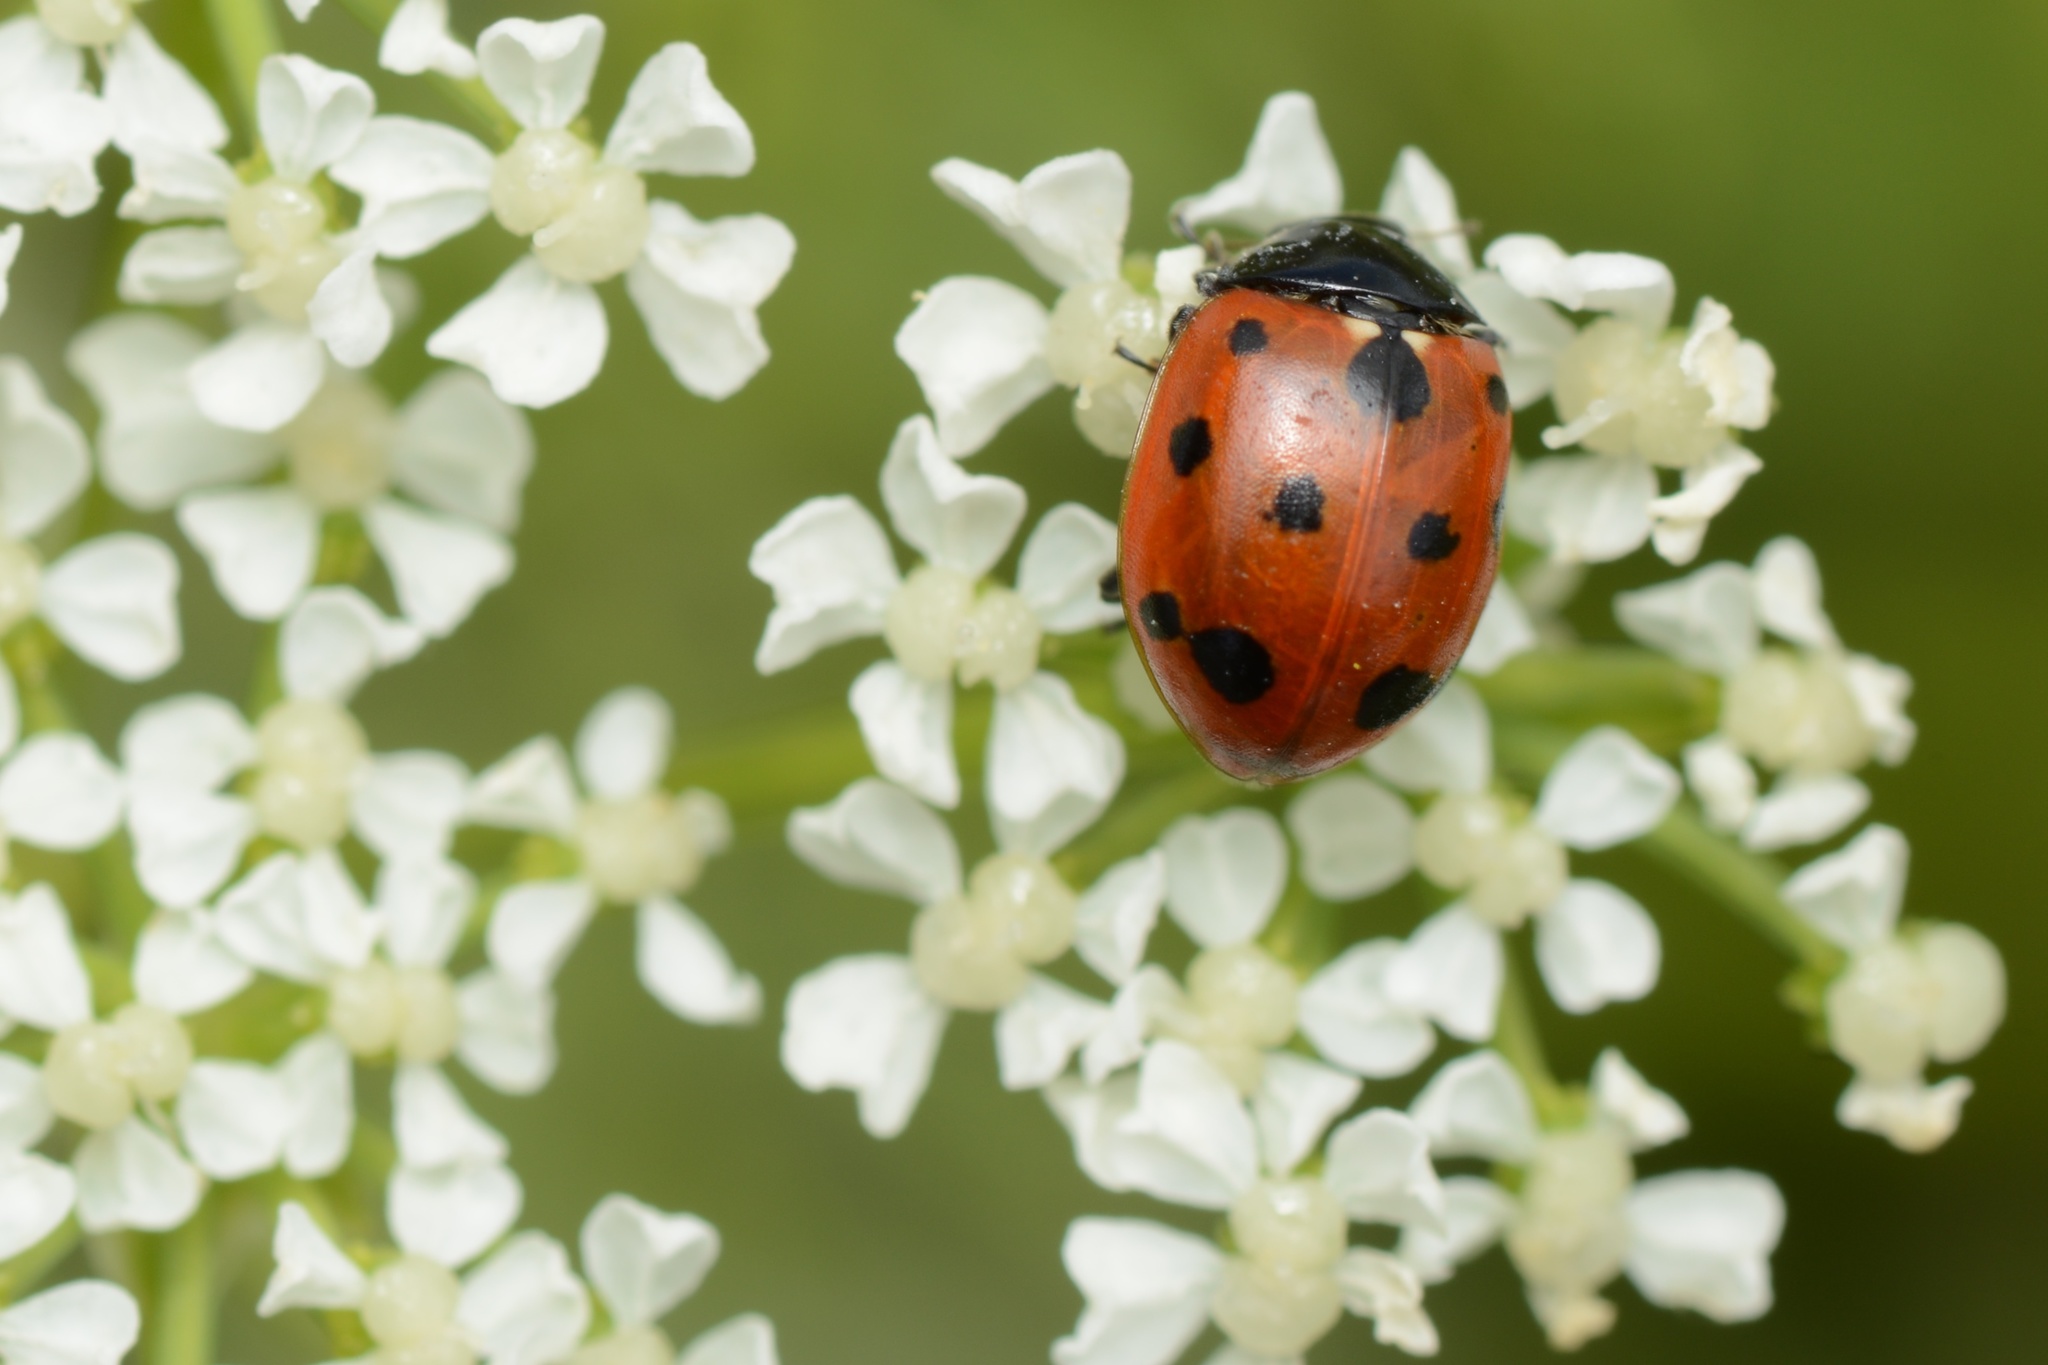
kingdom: Animalia
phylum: Arthropoda
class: Insecta
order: Coleoptera
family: Coccinellidae
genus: Coccinella
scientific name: Coccinella undecimpunctata
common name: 11-spot ladybird
